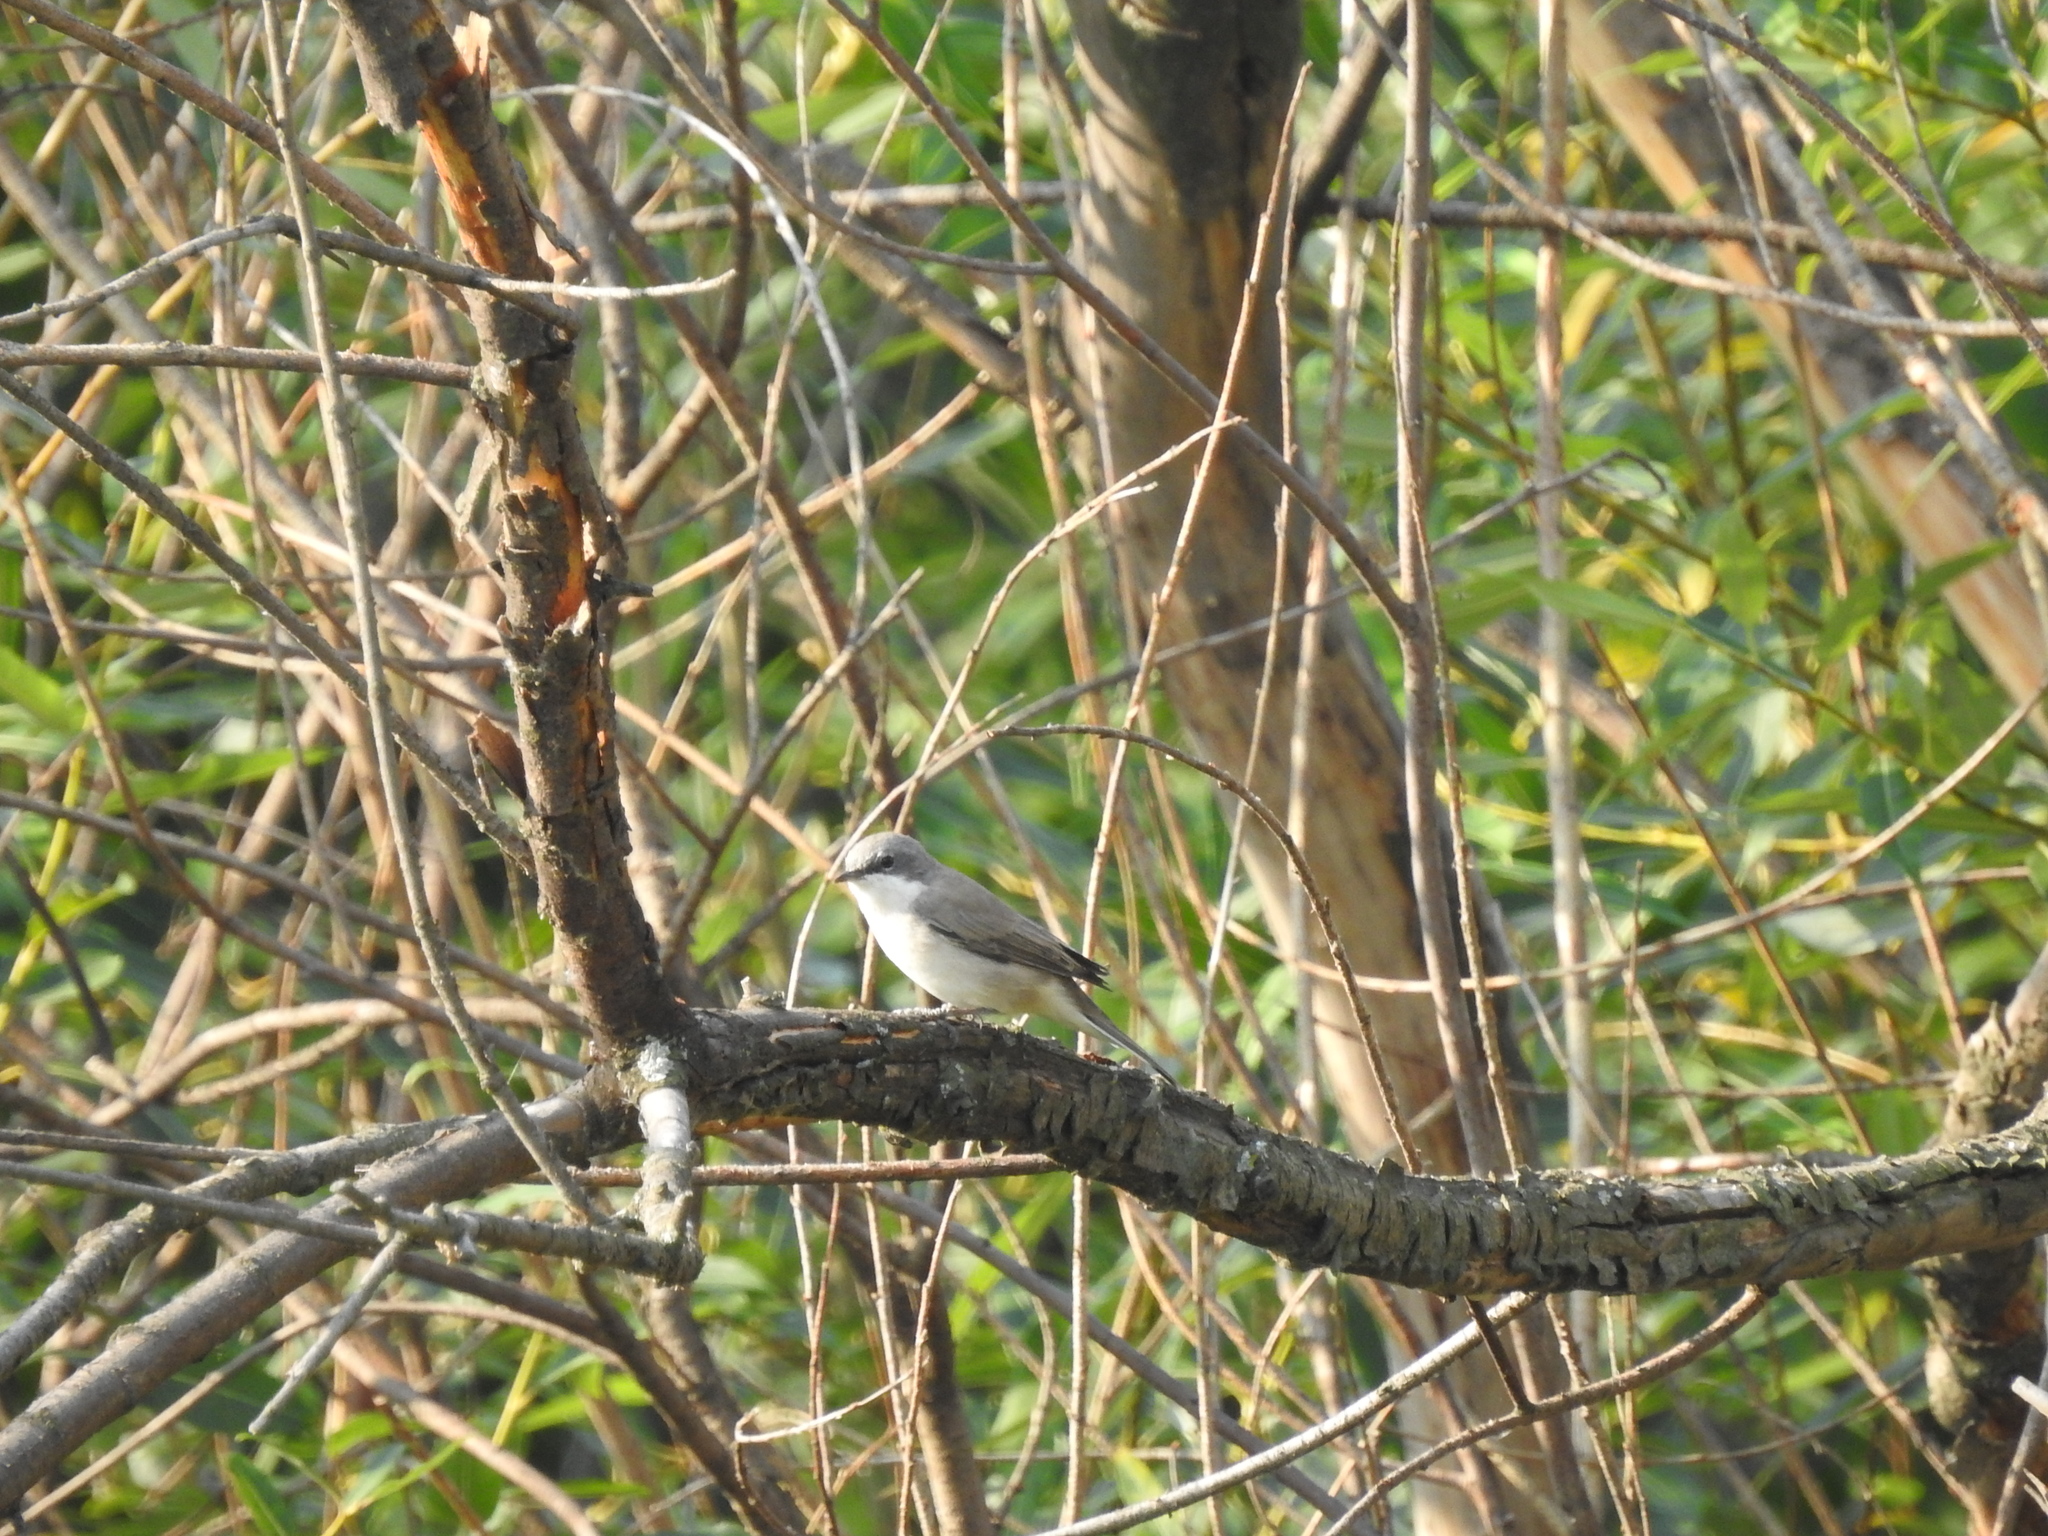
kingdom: Animalia
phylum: Chordata
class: Aves
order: Passeriformes
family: Sylviidae
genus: Sylvia
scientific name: Sylvia curruca
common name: Lesser whitethroat
